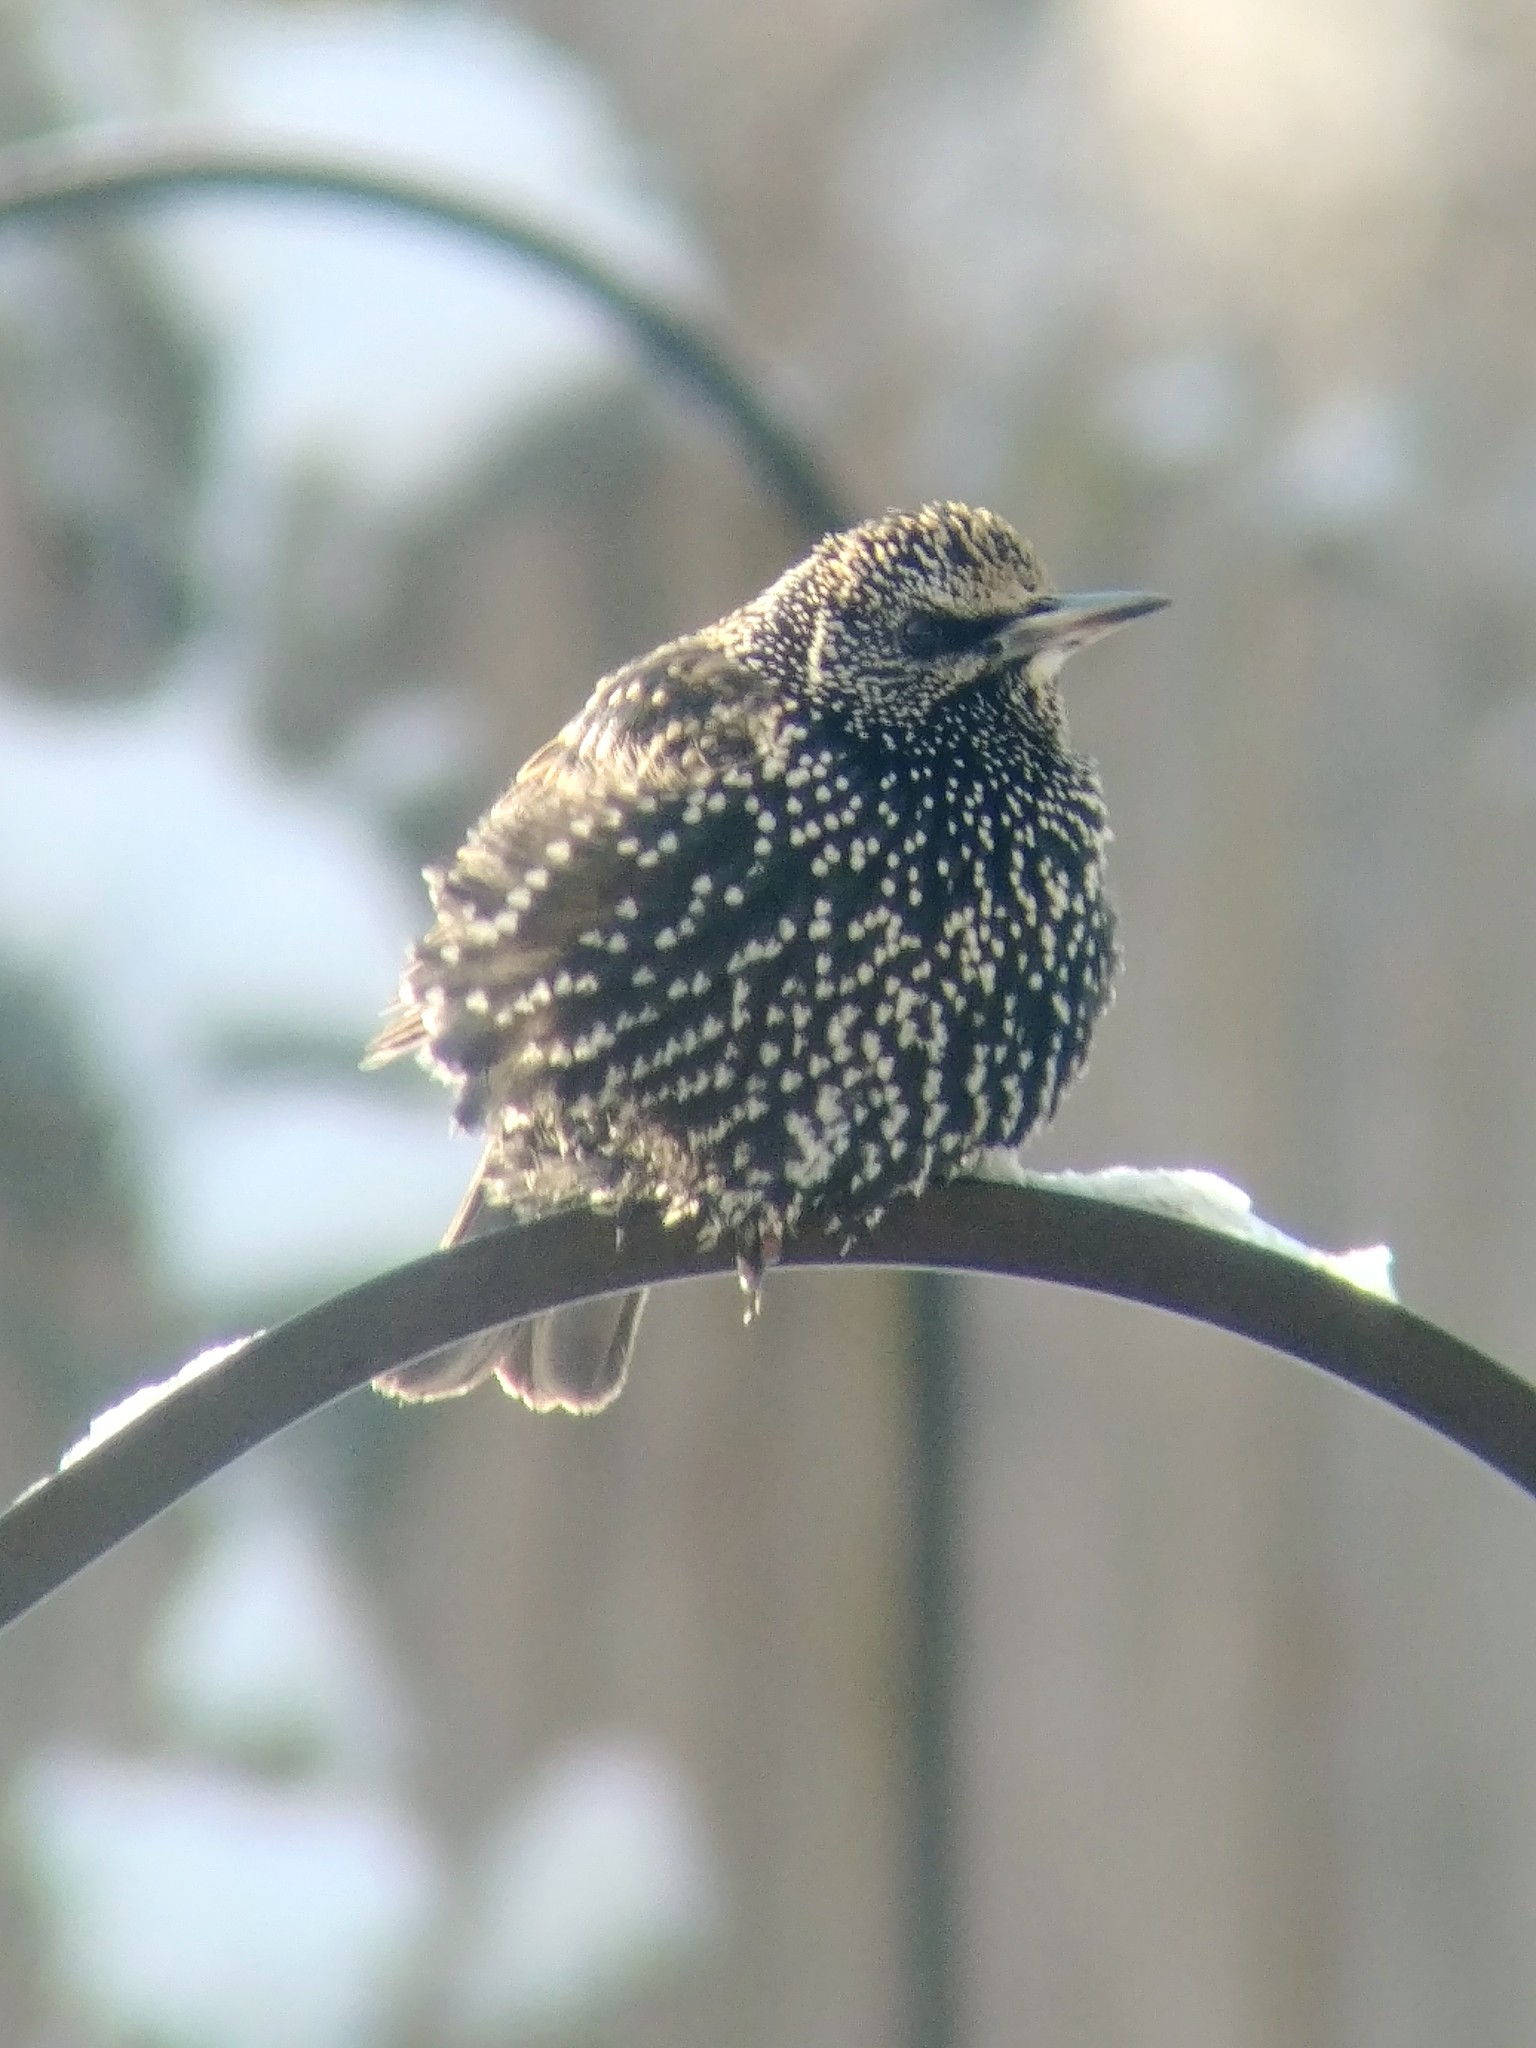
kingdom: Animalia
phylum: Chordata
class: Aves
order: Passeriformes
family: Sturnidae
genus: Sturnus
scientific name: Sturnus vulgaris
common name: Common starling
